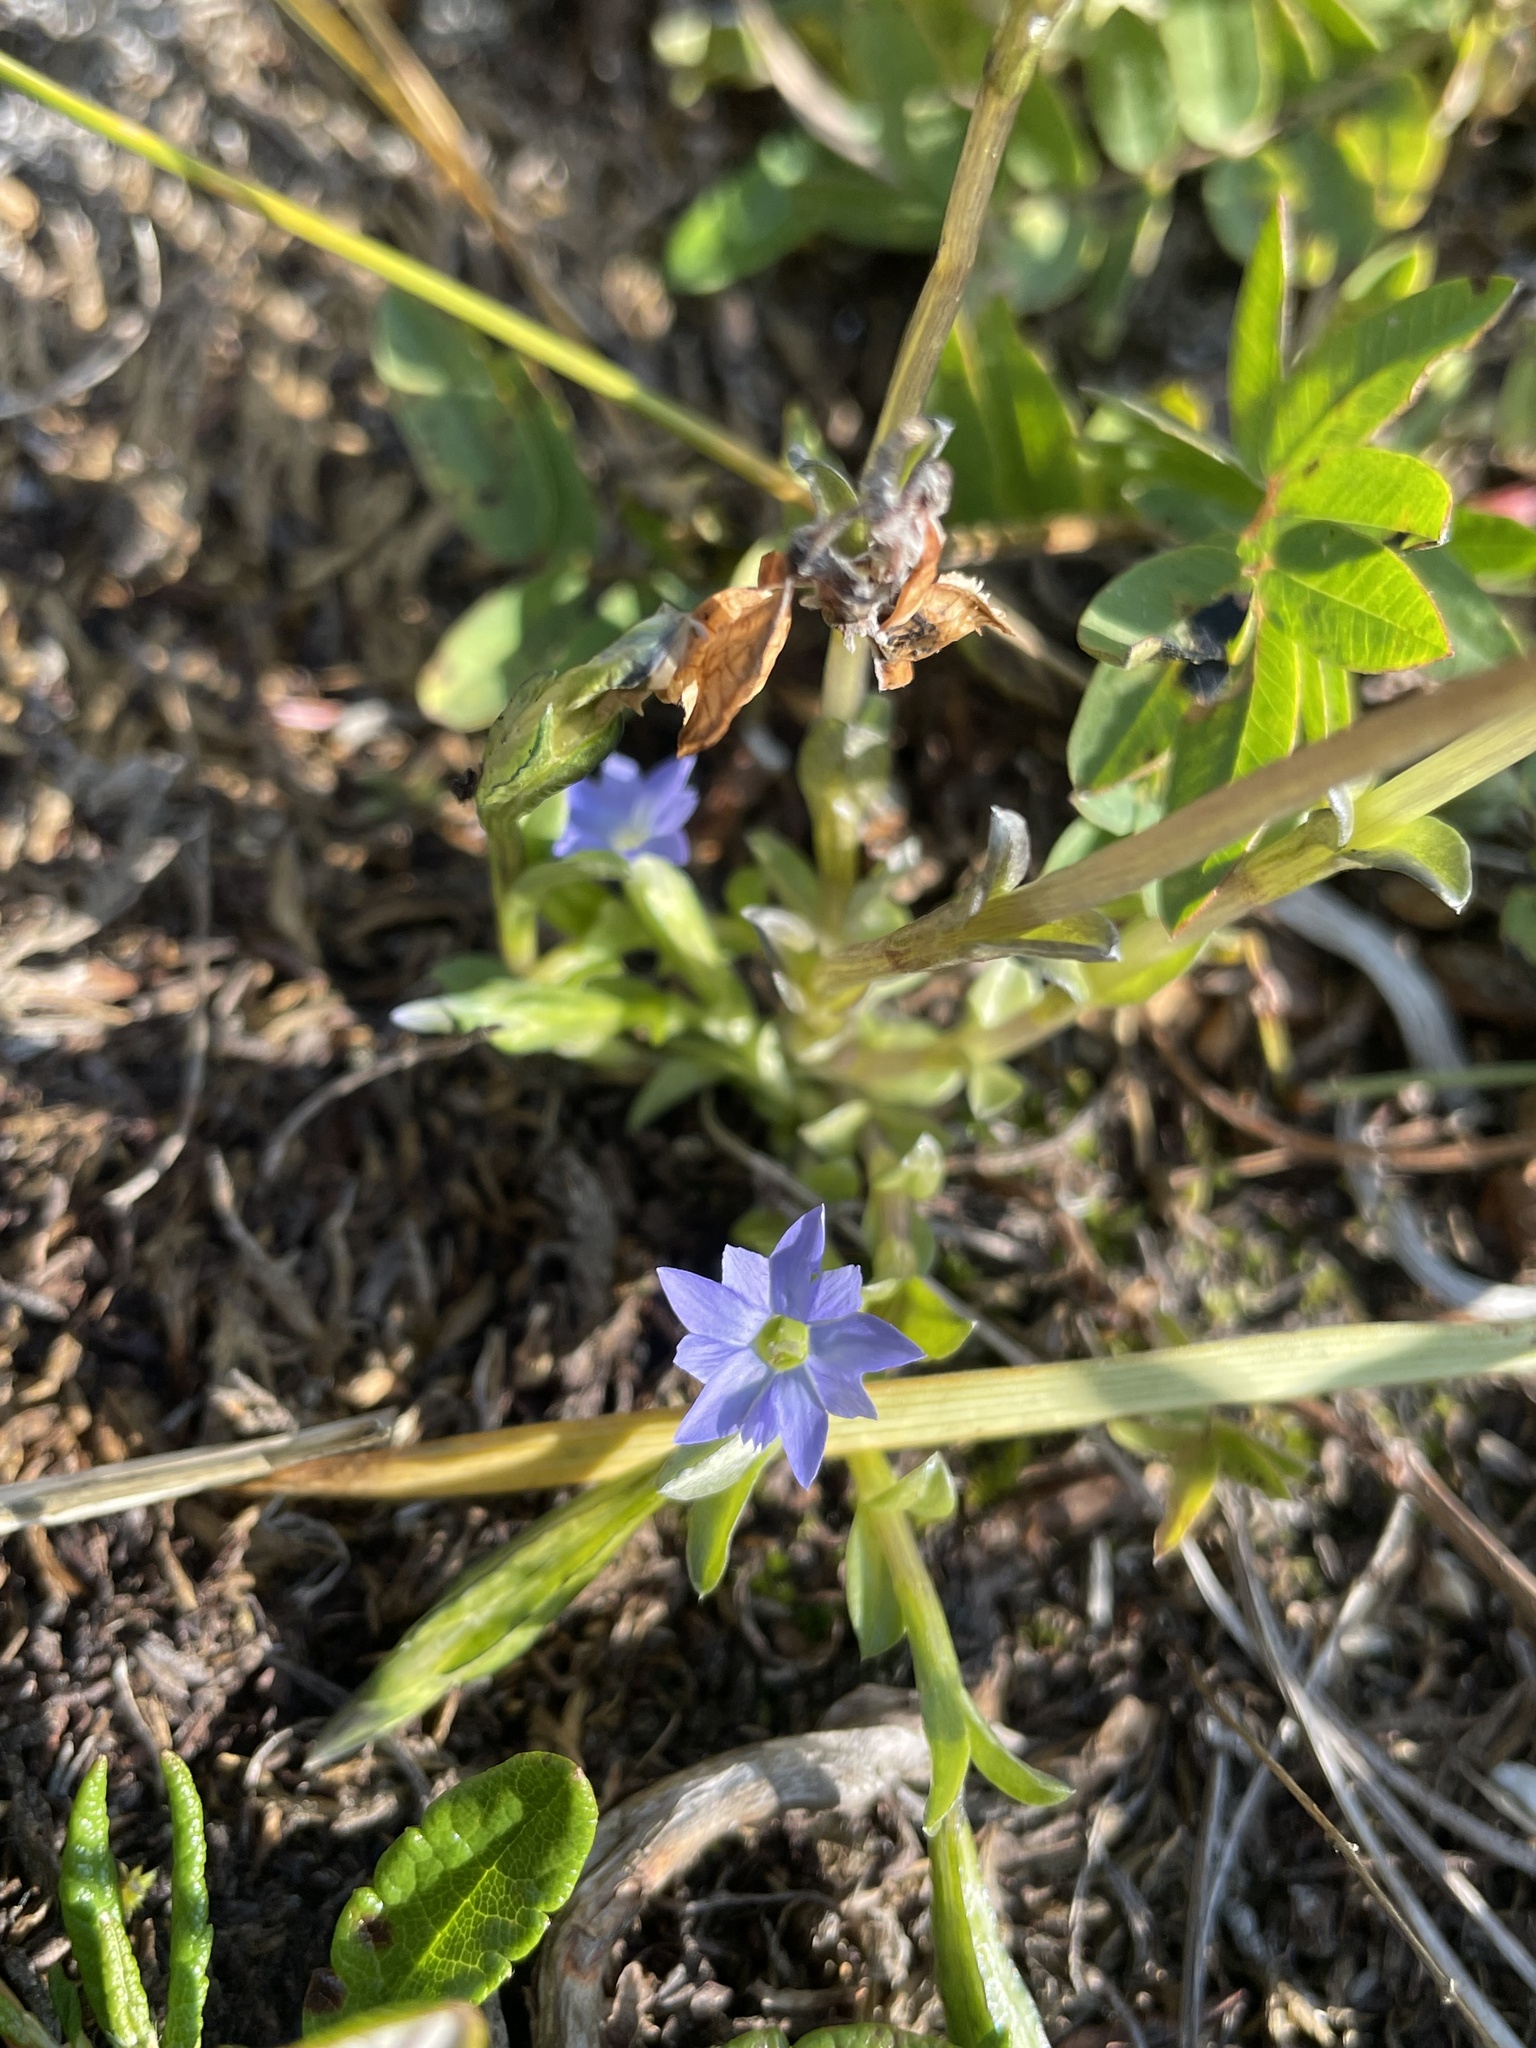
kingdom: Plantae
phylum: Tracheophyta
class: Magnoliopsida
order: Gentianales
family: Gentianaceae
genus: Gentiana
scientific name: Gentiana prostrata
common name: Moss gentian
